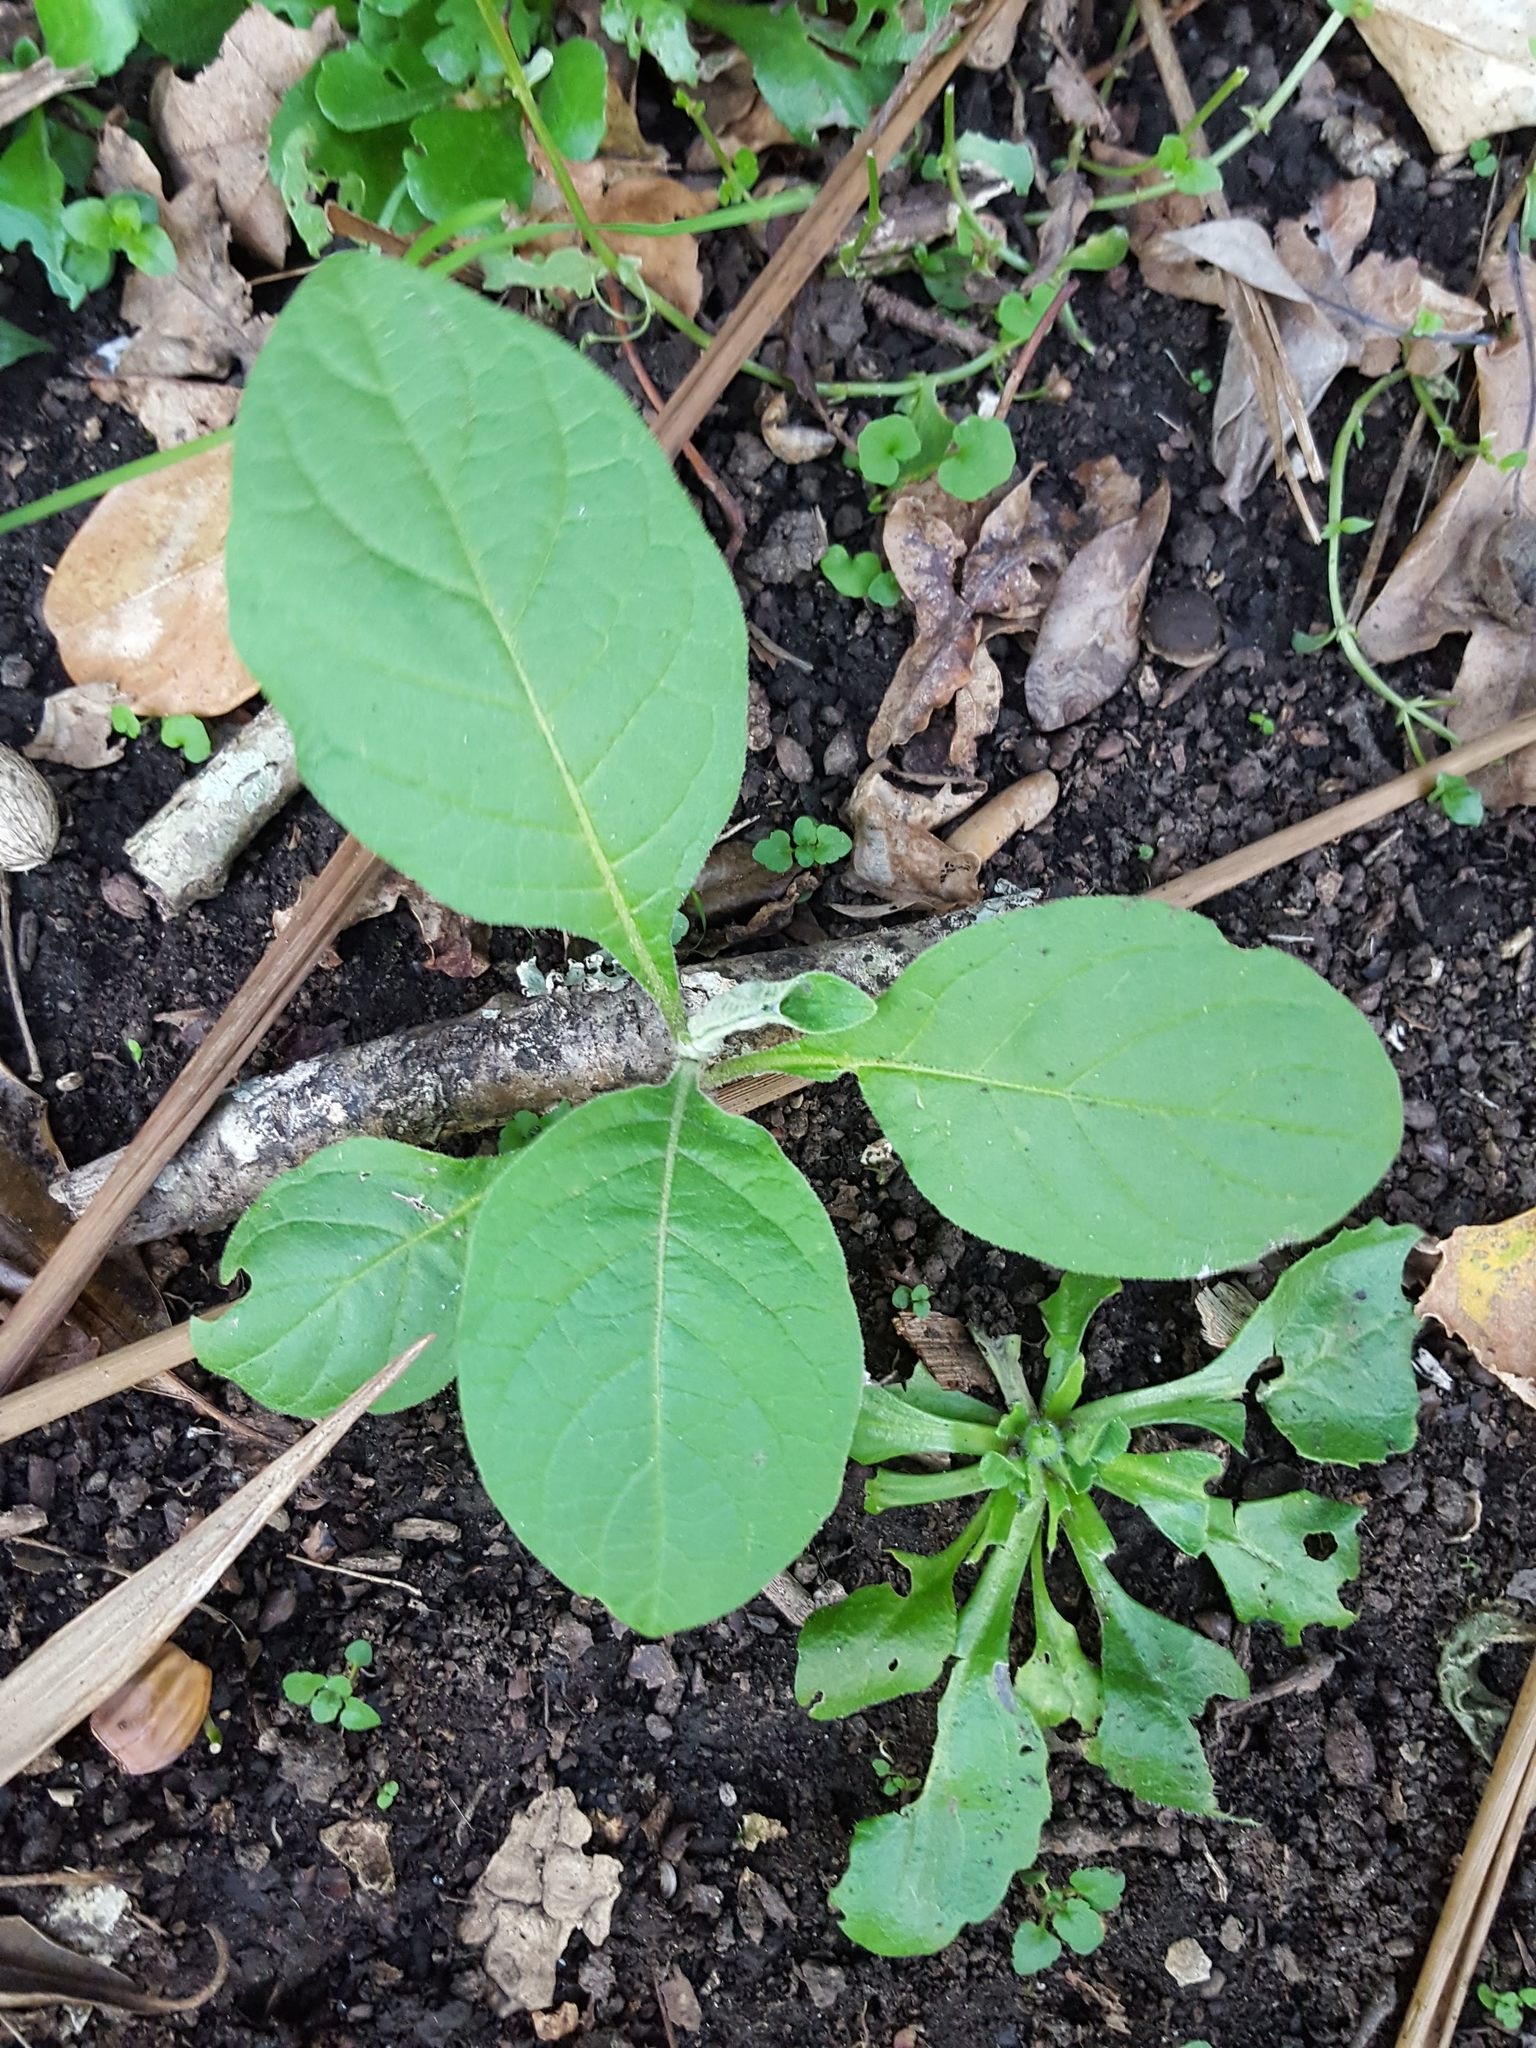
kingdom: Plantae
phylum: Tracheophyta
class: Magnoliopsida
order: Solanales
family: Solanaceae
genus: Solanum
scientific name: Solanum mauritianum
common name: Earleaf nightshade
